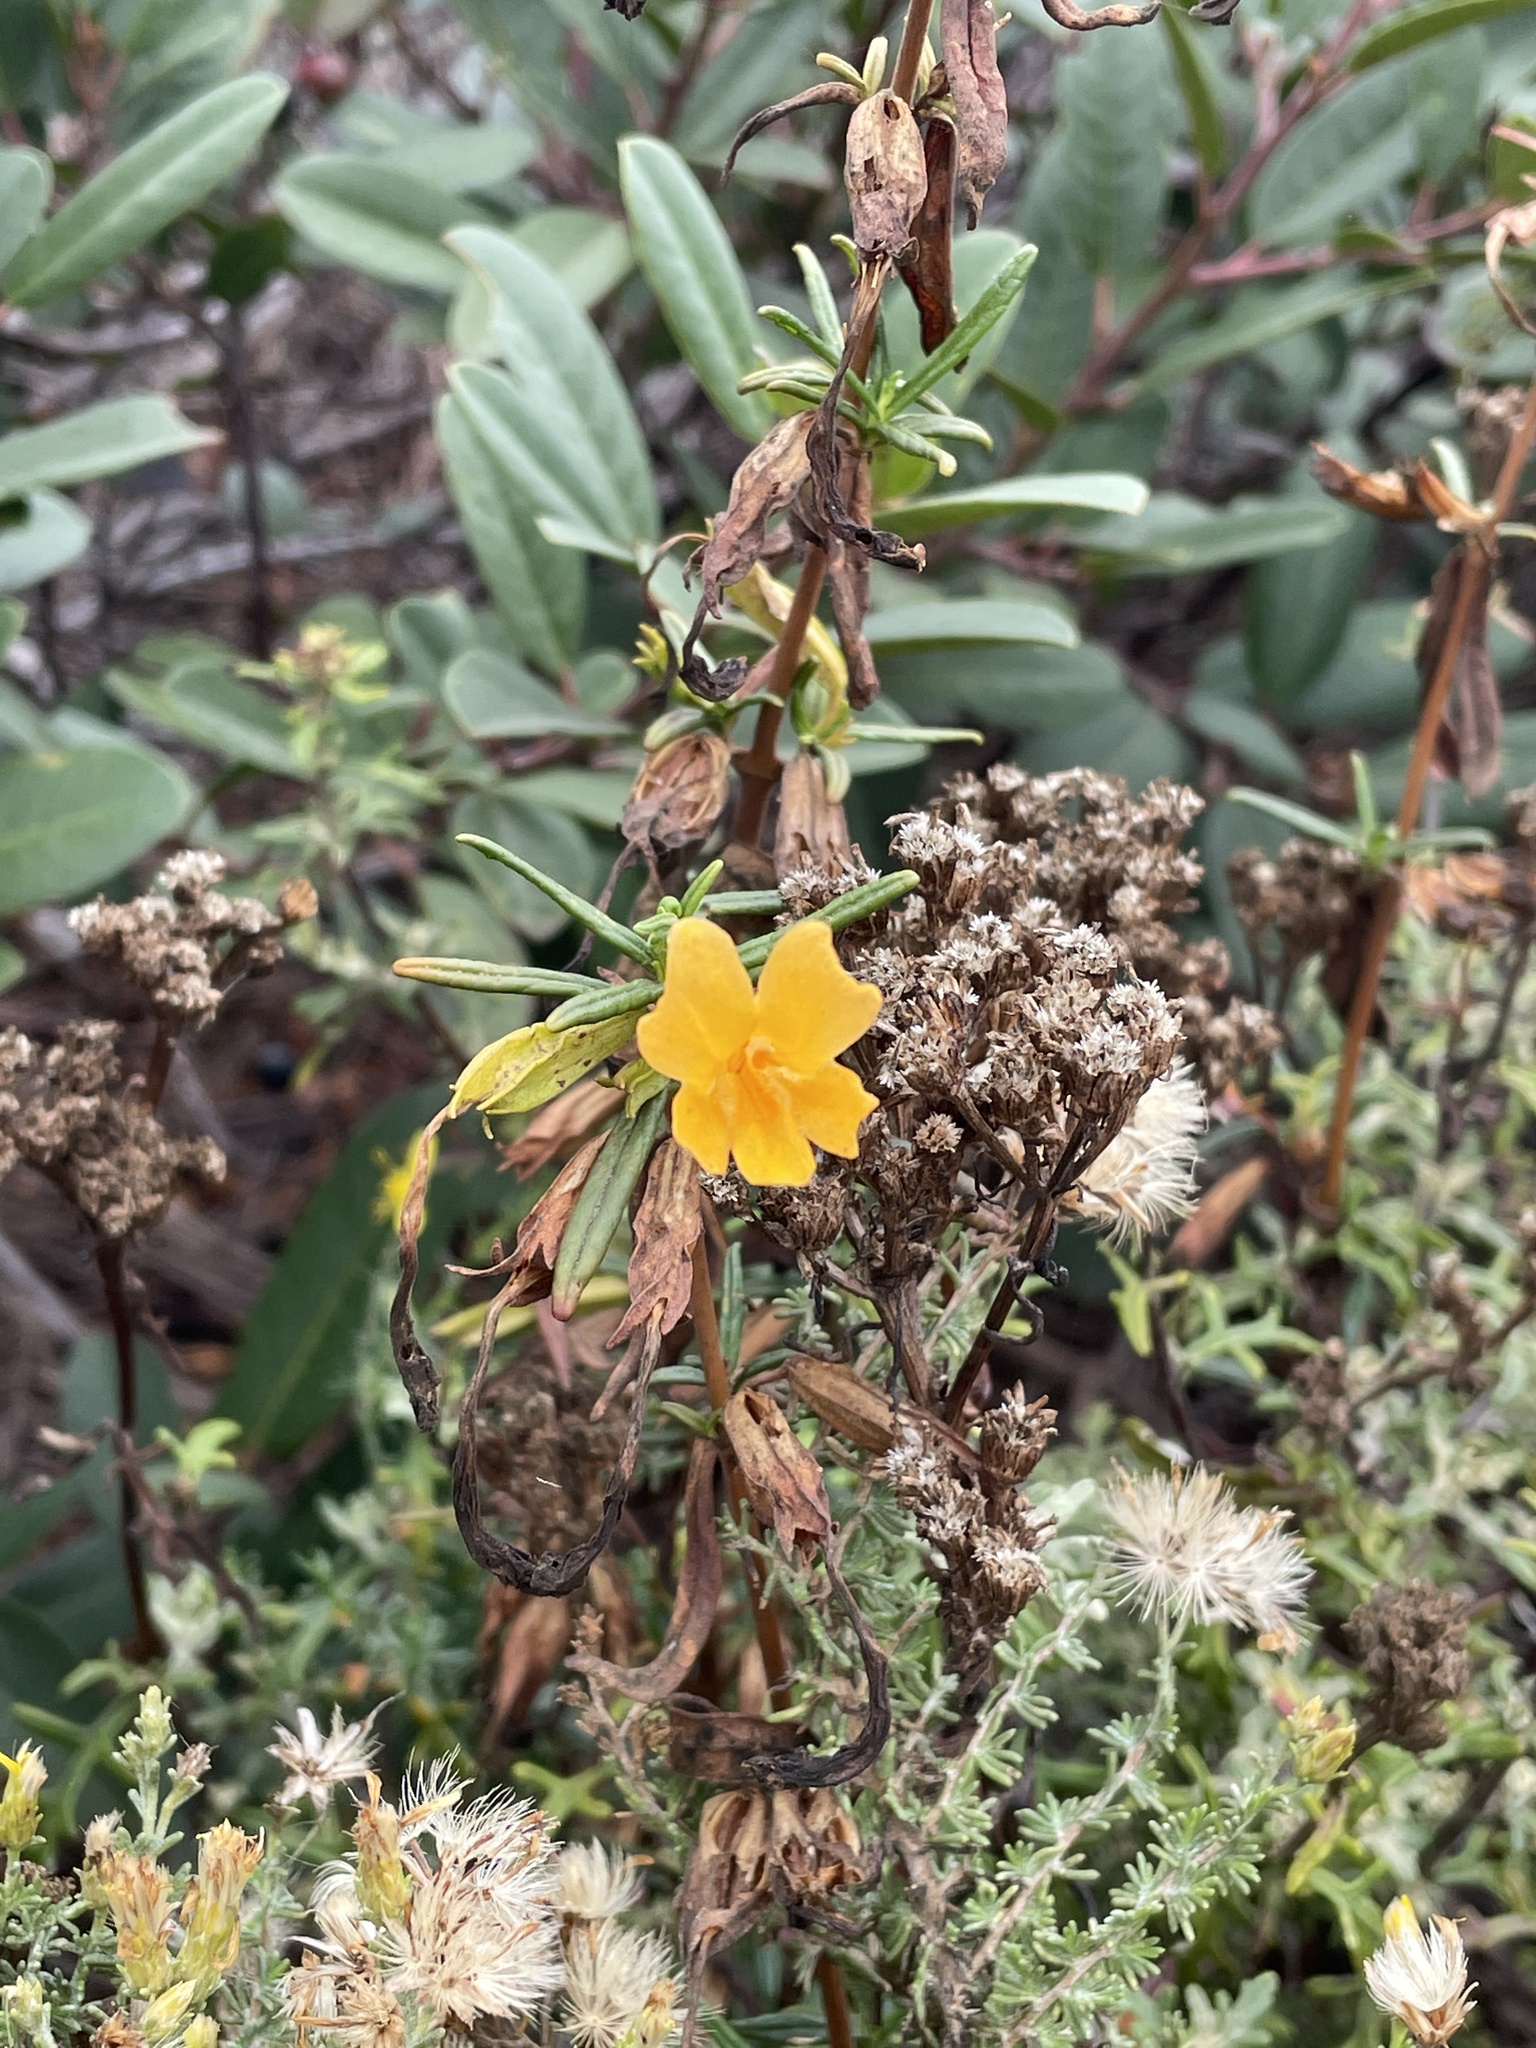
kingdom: Plantae
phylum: Tracheophyta
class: Magnoliopsida
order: Lamiales
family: Phrymaceae
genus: Diplacus
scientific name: Diplacus aurantiacus
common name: Bush monkey-flower
